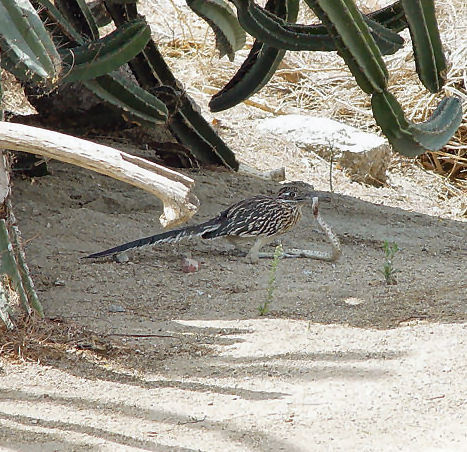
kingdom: Animalia
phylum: Chordata
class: Aves
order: Cuculiformes
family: Cuculidae
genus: Geococcyx
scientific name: Geococcyx californianus
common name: Greater roadrunner
